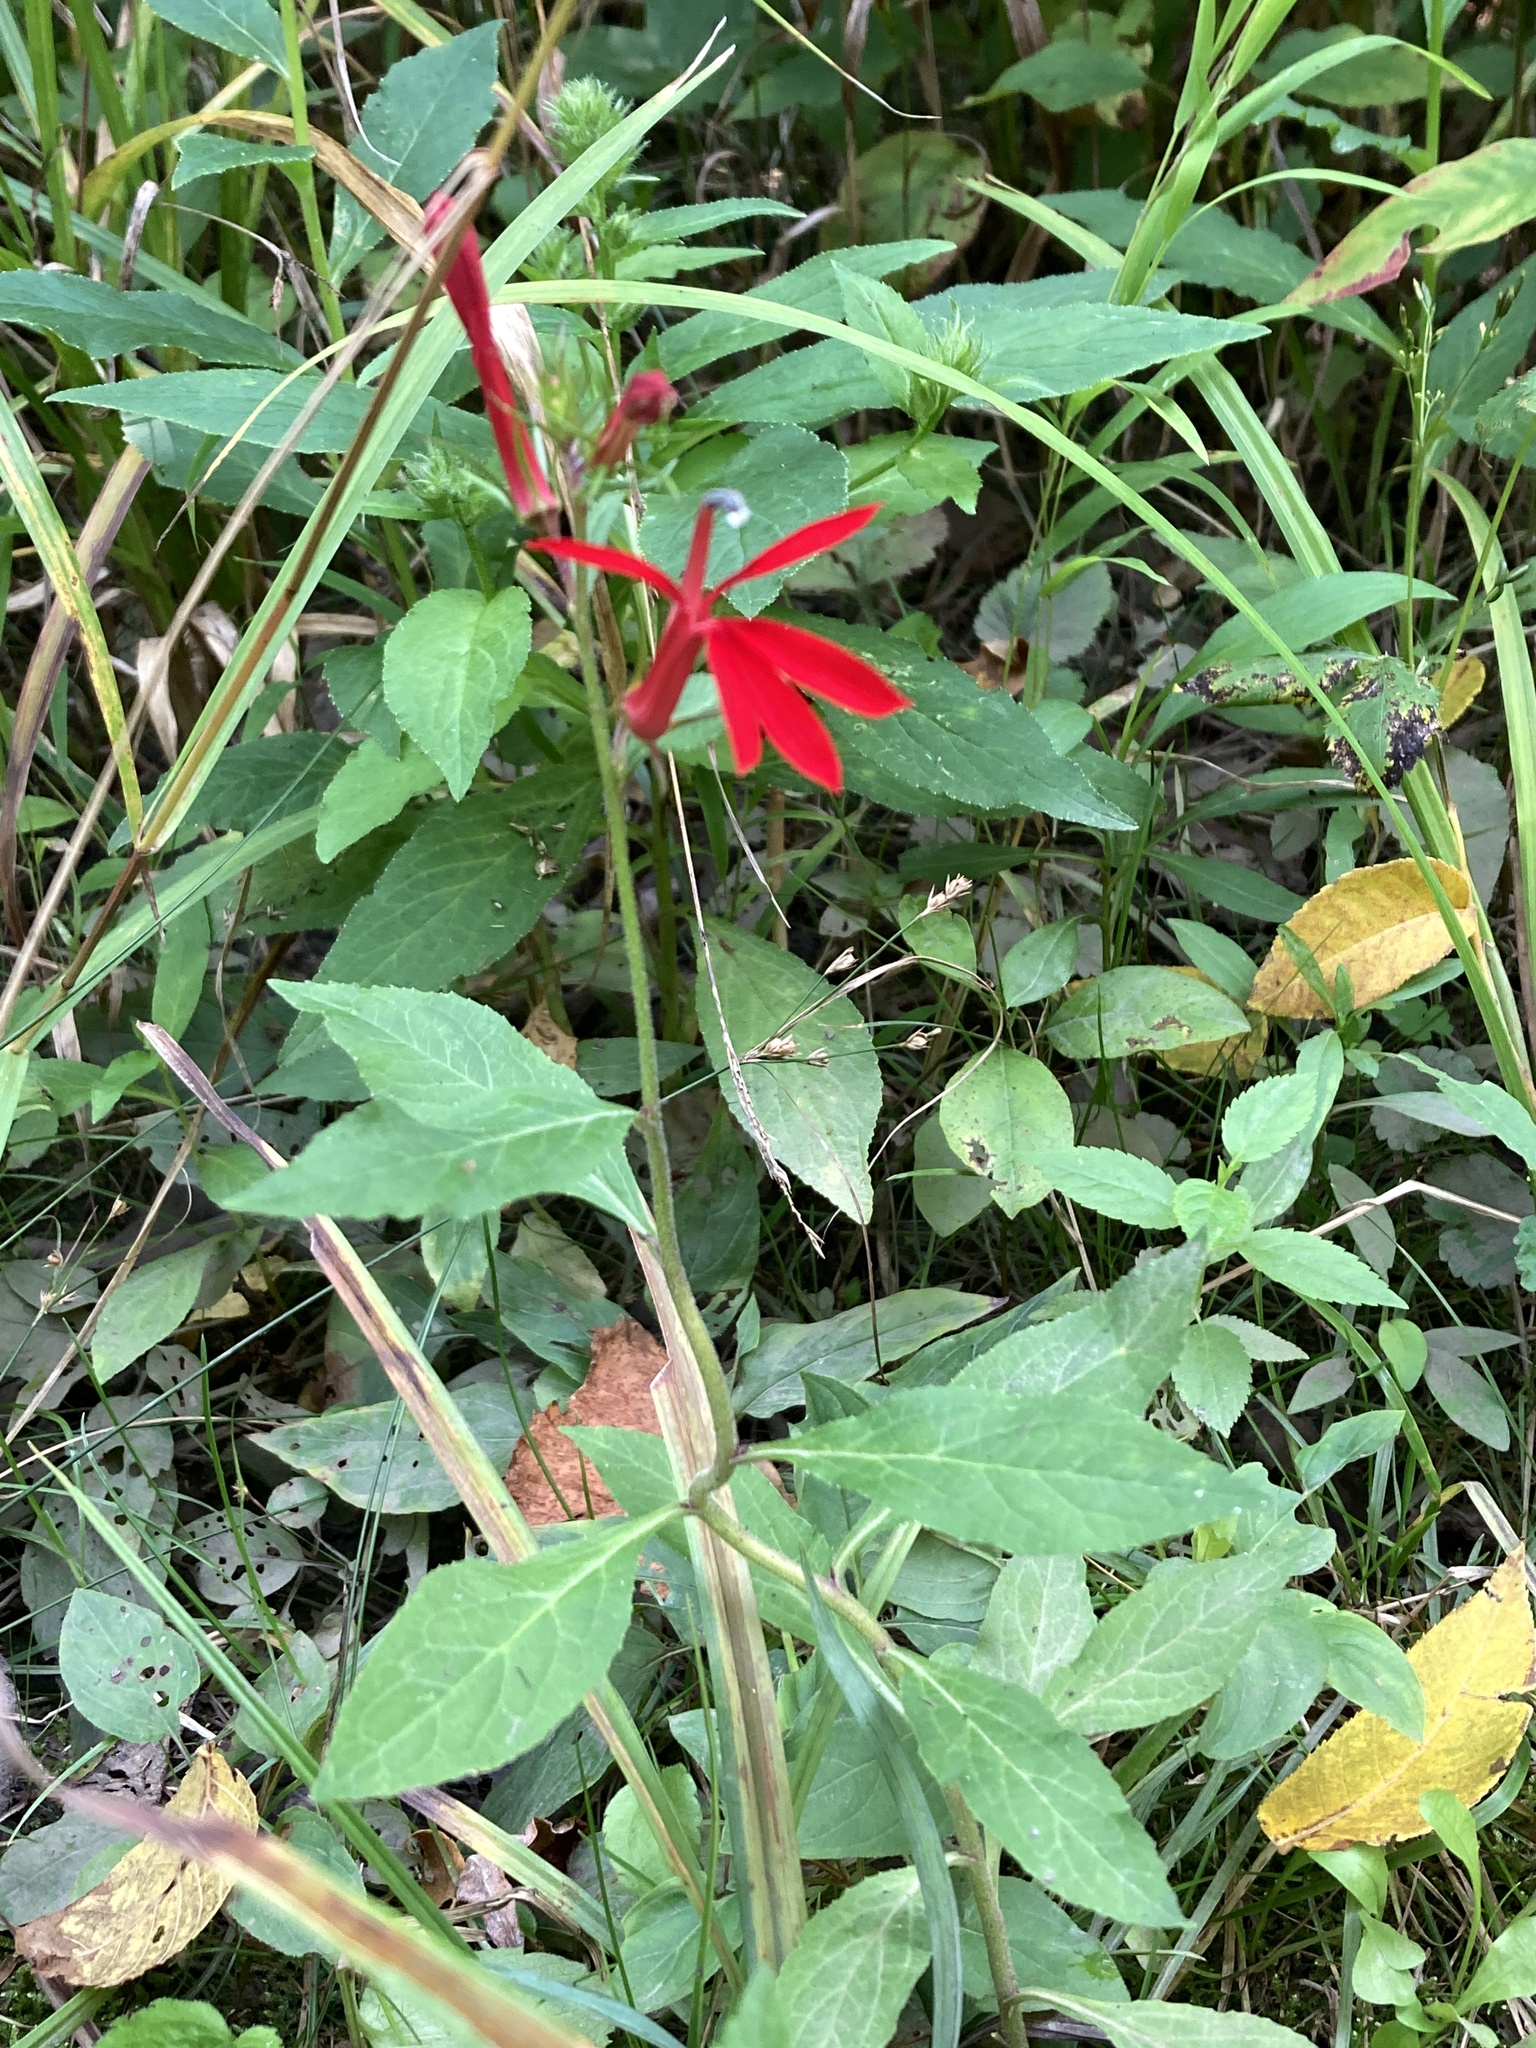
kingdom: Plantae
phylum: Tracheophyta
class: Magnoliopsida
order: Asterales
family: Campanulaceae
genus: Lobelia
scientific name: Lobelia cardinalis
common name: Cardinal flower
